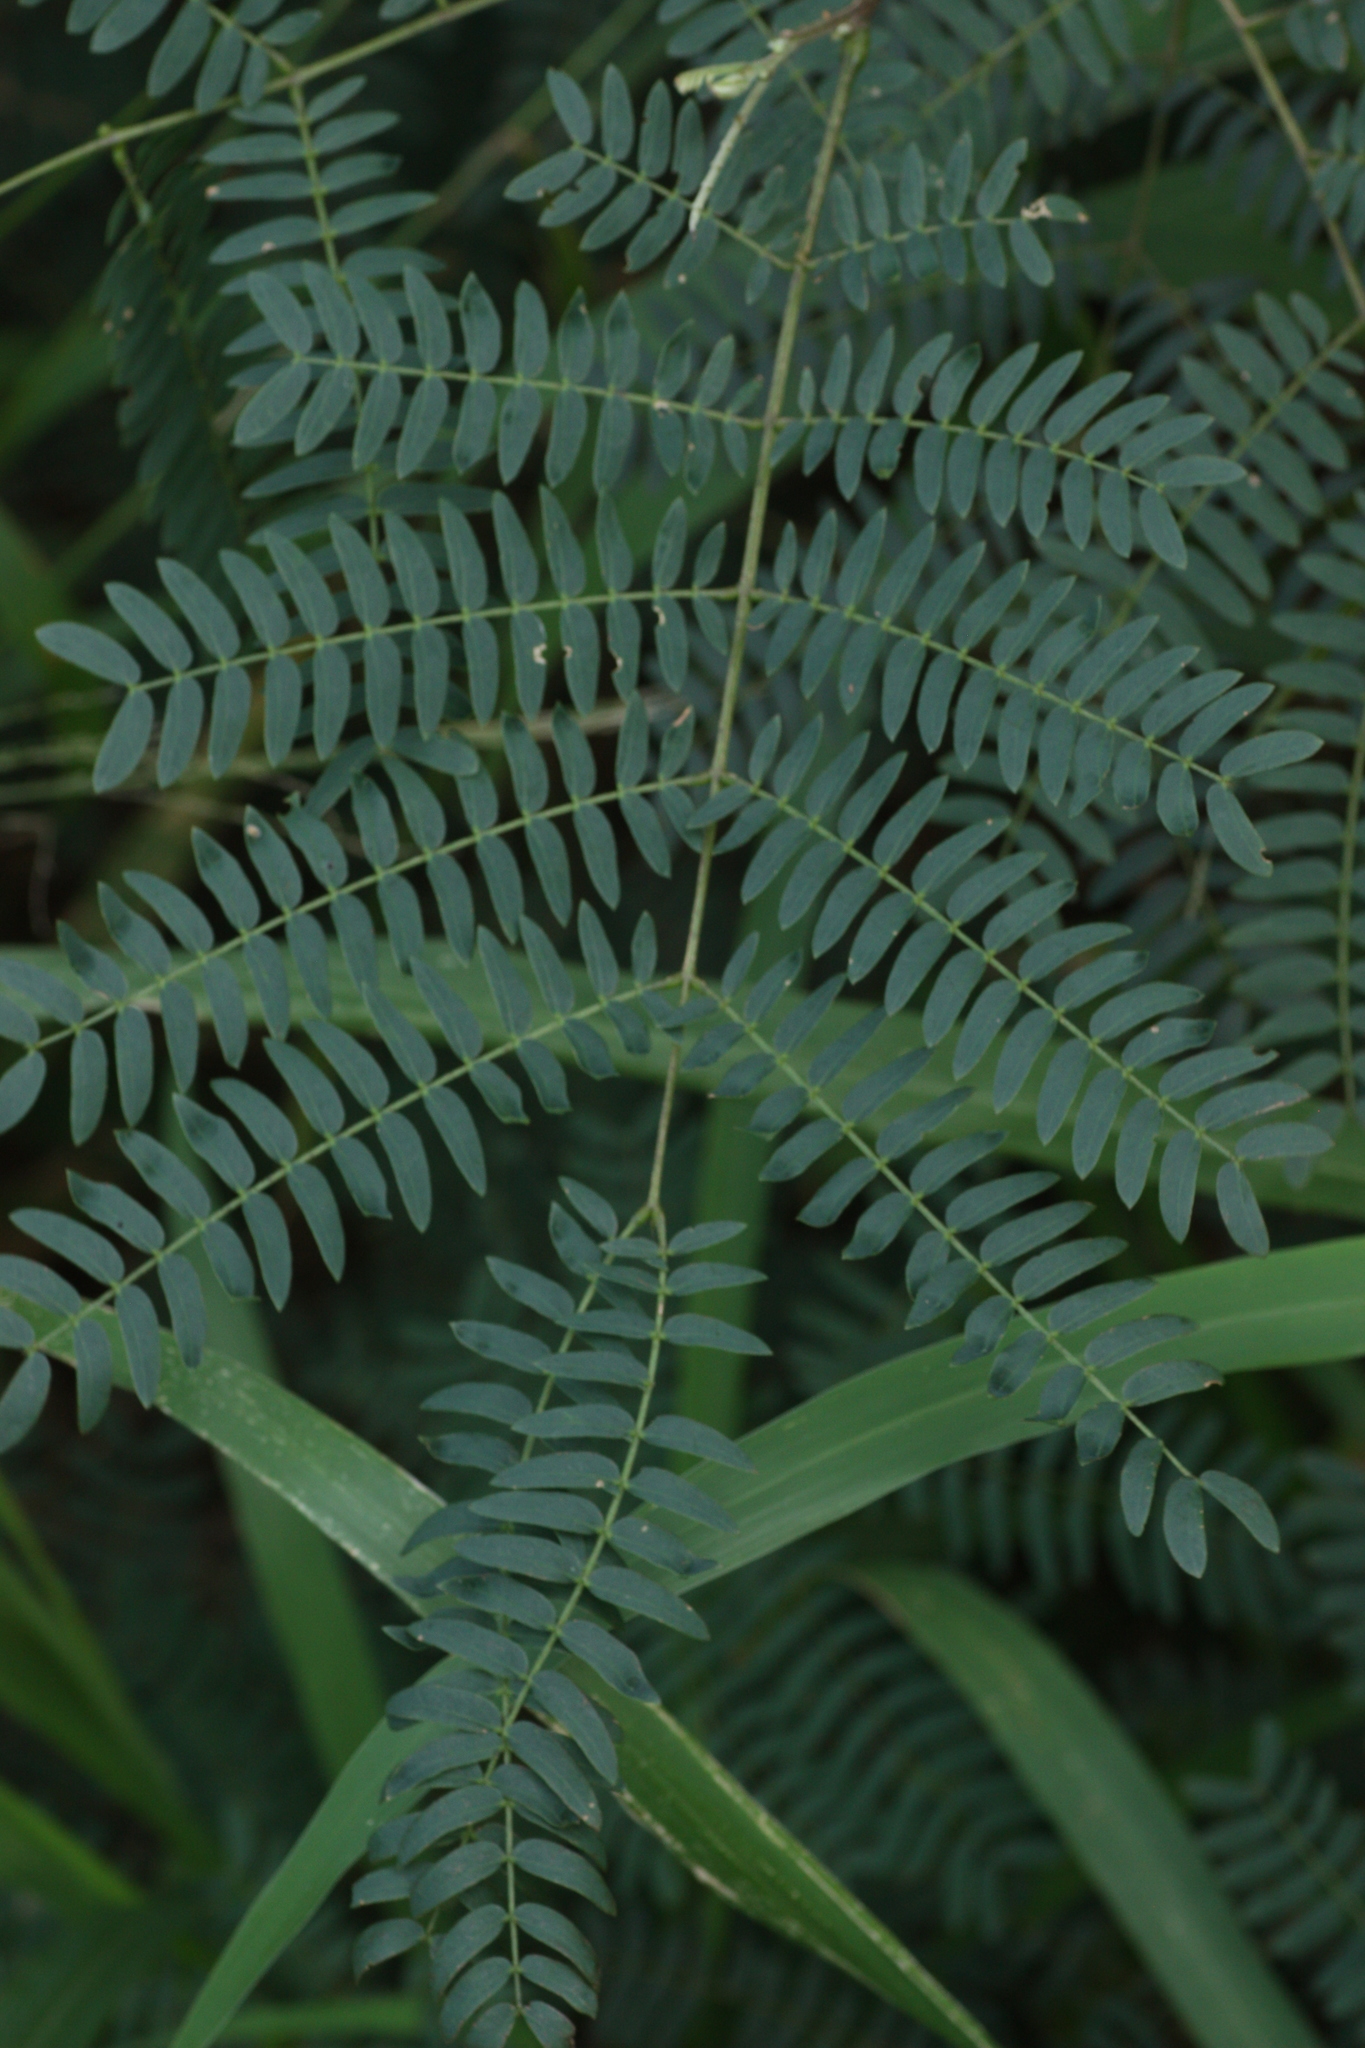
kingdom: Plantae
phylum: Tracheophyta
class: Magnoliopsida
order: Fabales
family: Fabaceae
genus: Leucaena
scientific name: Leucaena leucocephala
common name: White leadtree
